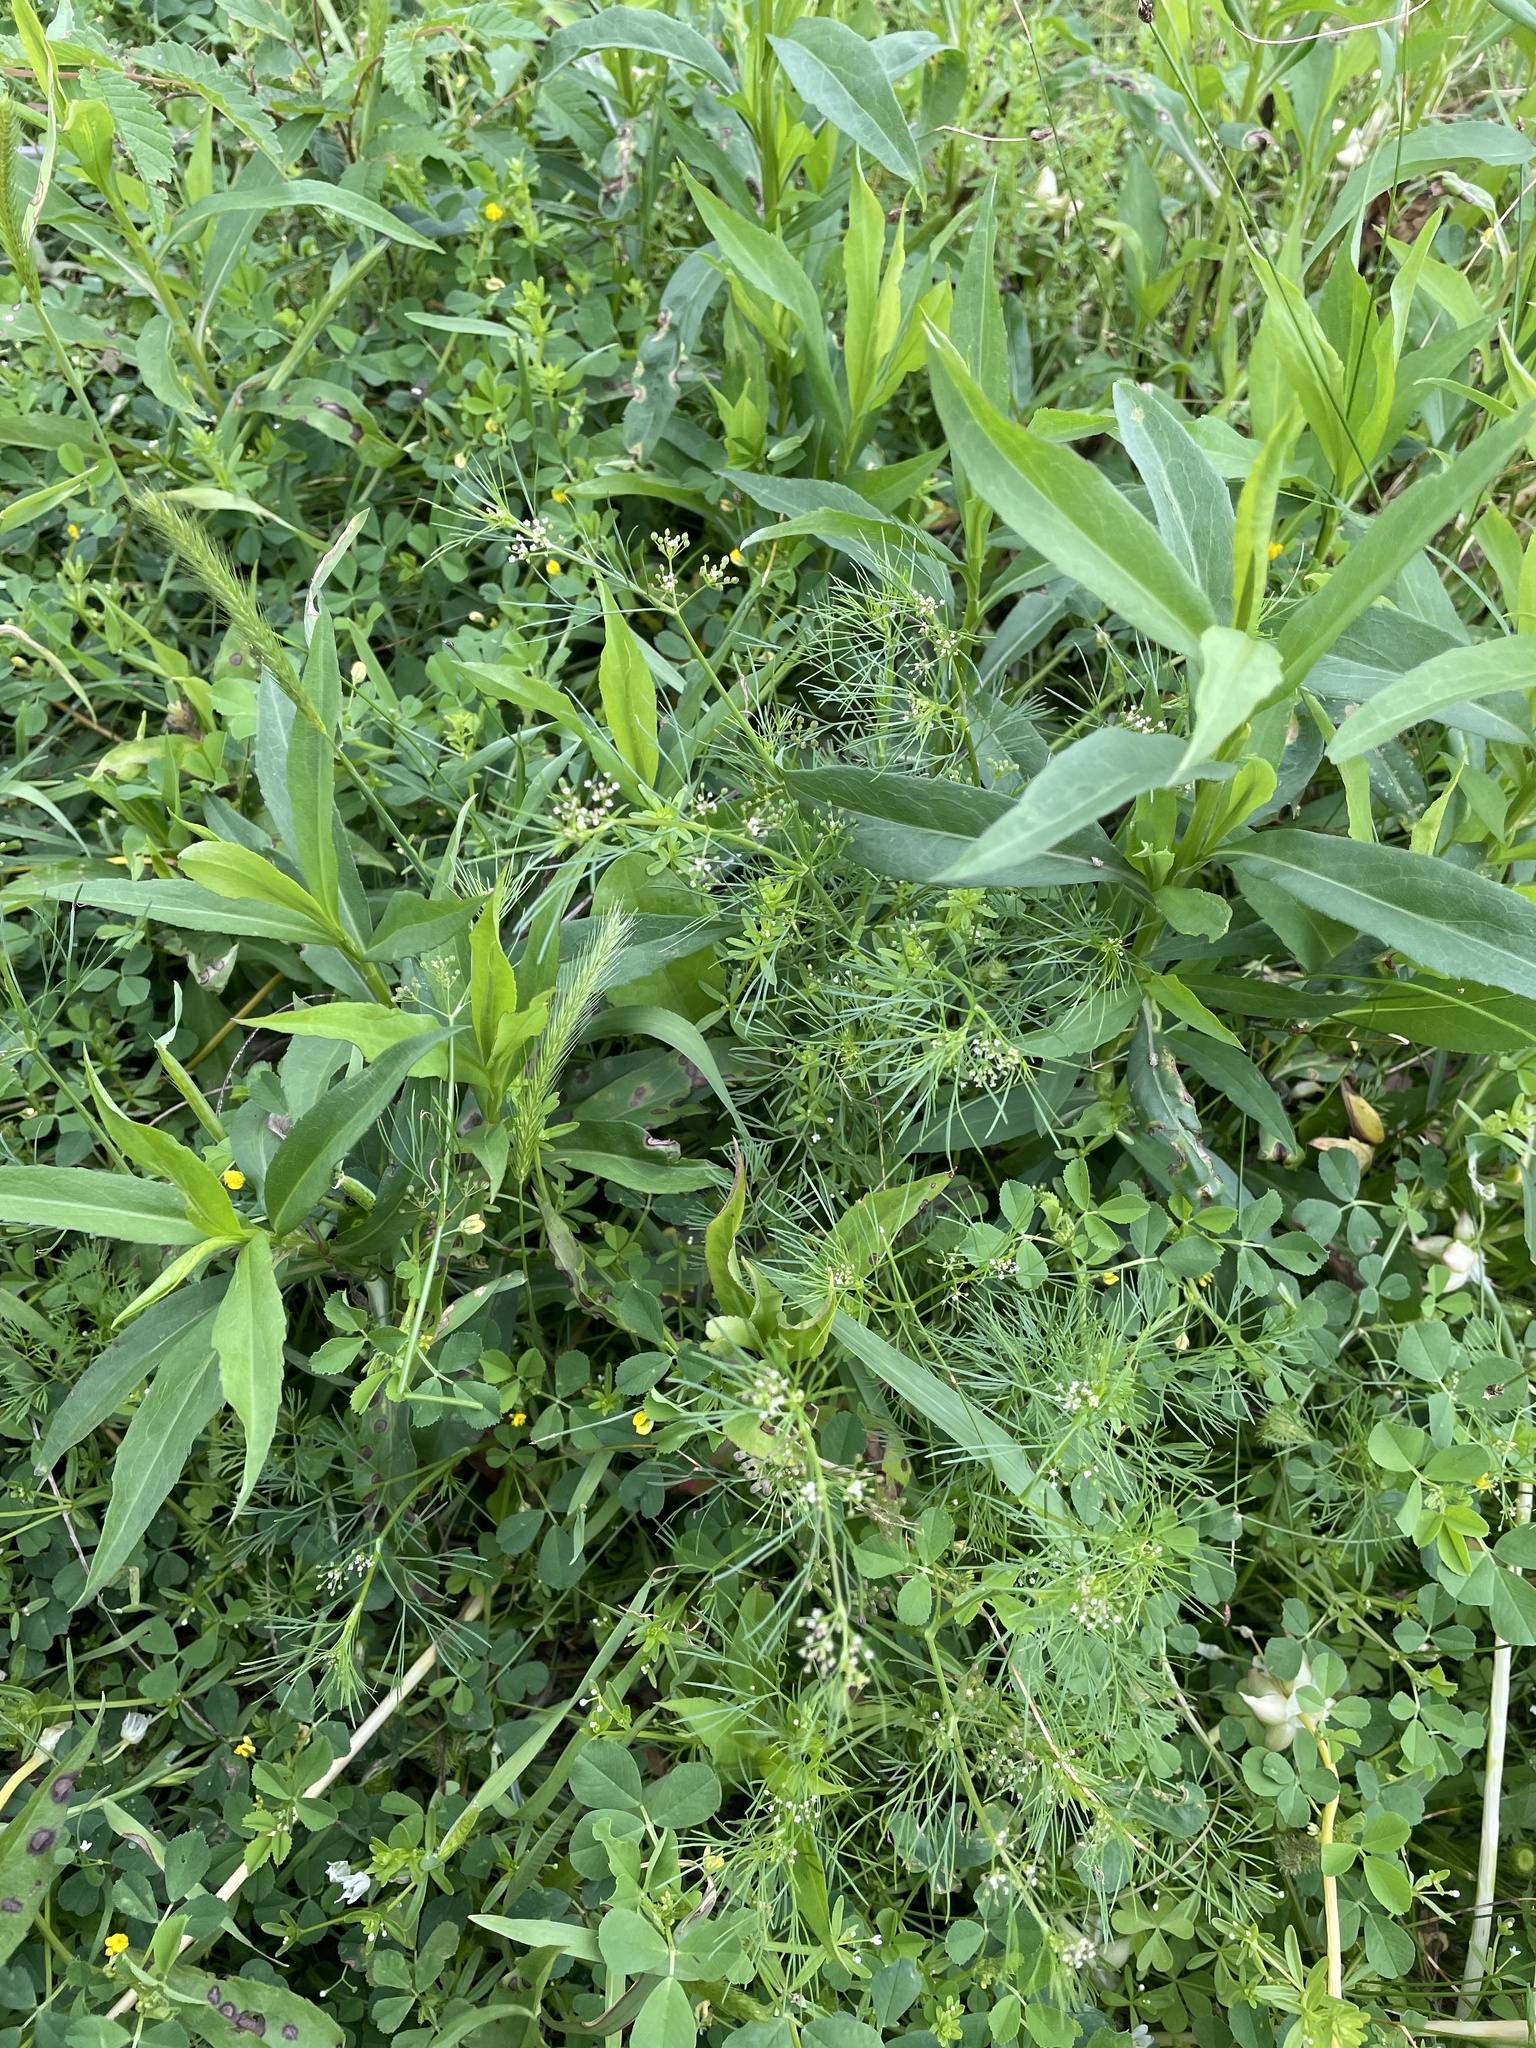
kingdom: Plantae
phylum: Tracheophyta
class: Magnoliopsida
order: Apiales
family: Apiaceae
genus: Cyclospermum
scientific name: Cyclospermum leptophyllum
